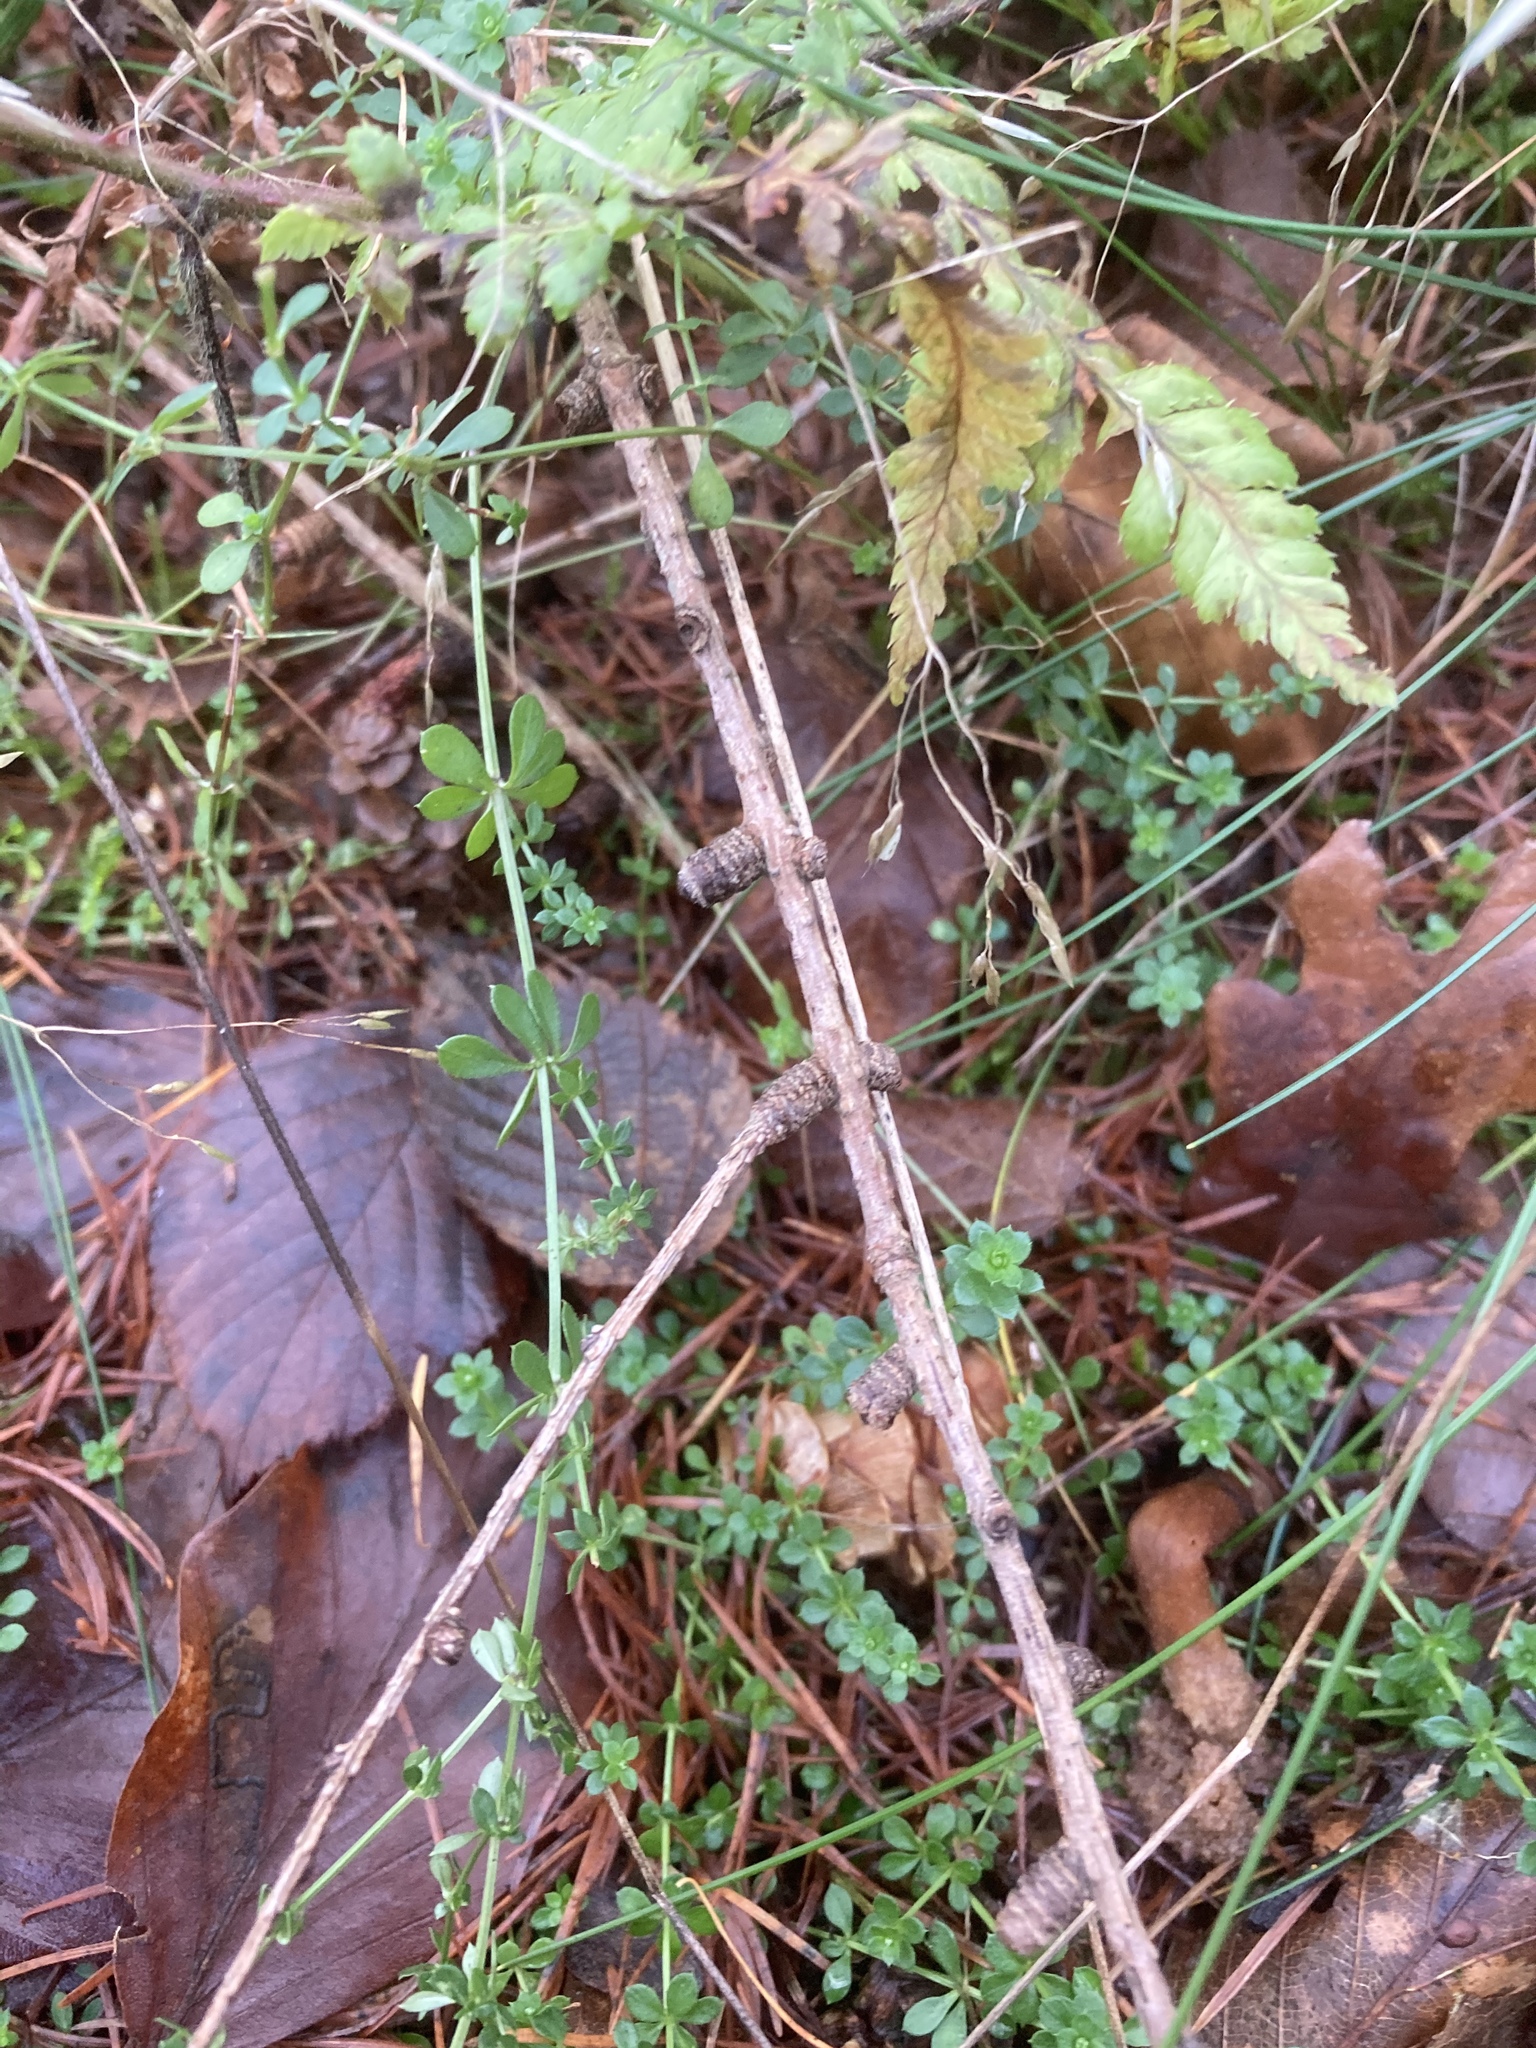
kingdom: Plantae
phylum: Tracheophyta
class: Magnoliopsida
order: Gentianales
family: Rubiaceae
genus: Galium
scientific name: Galium saxatile
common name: Heath bedstraw
